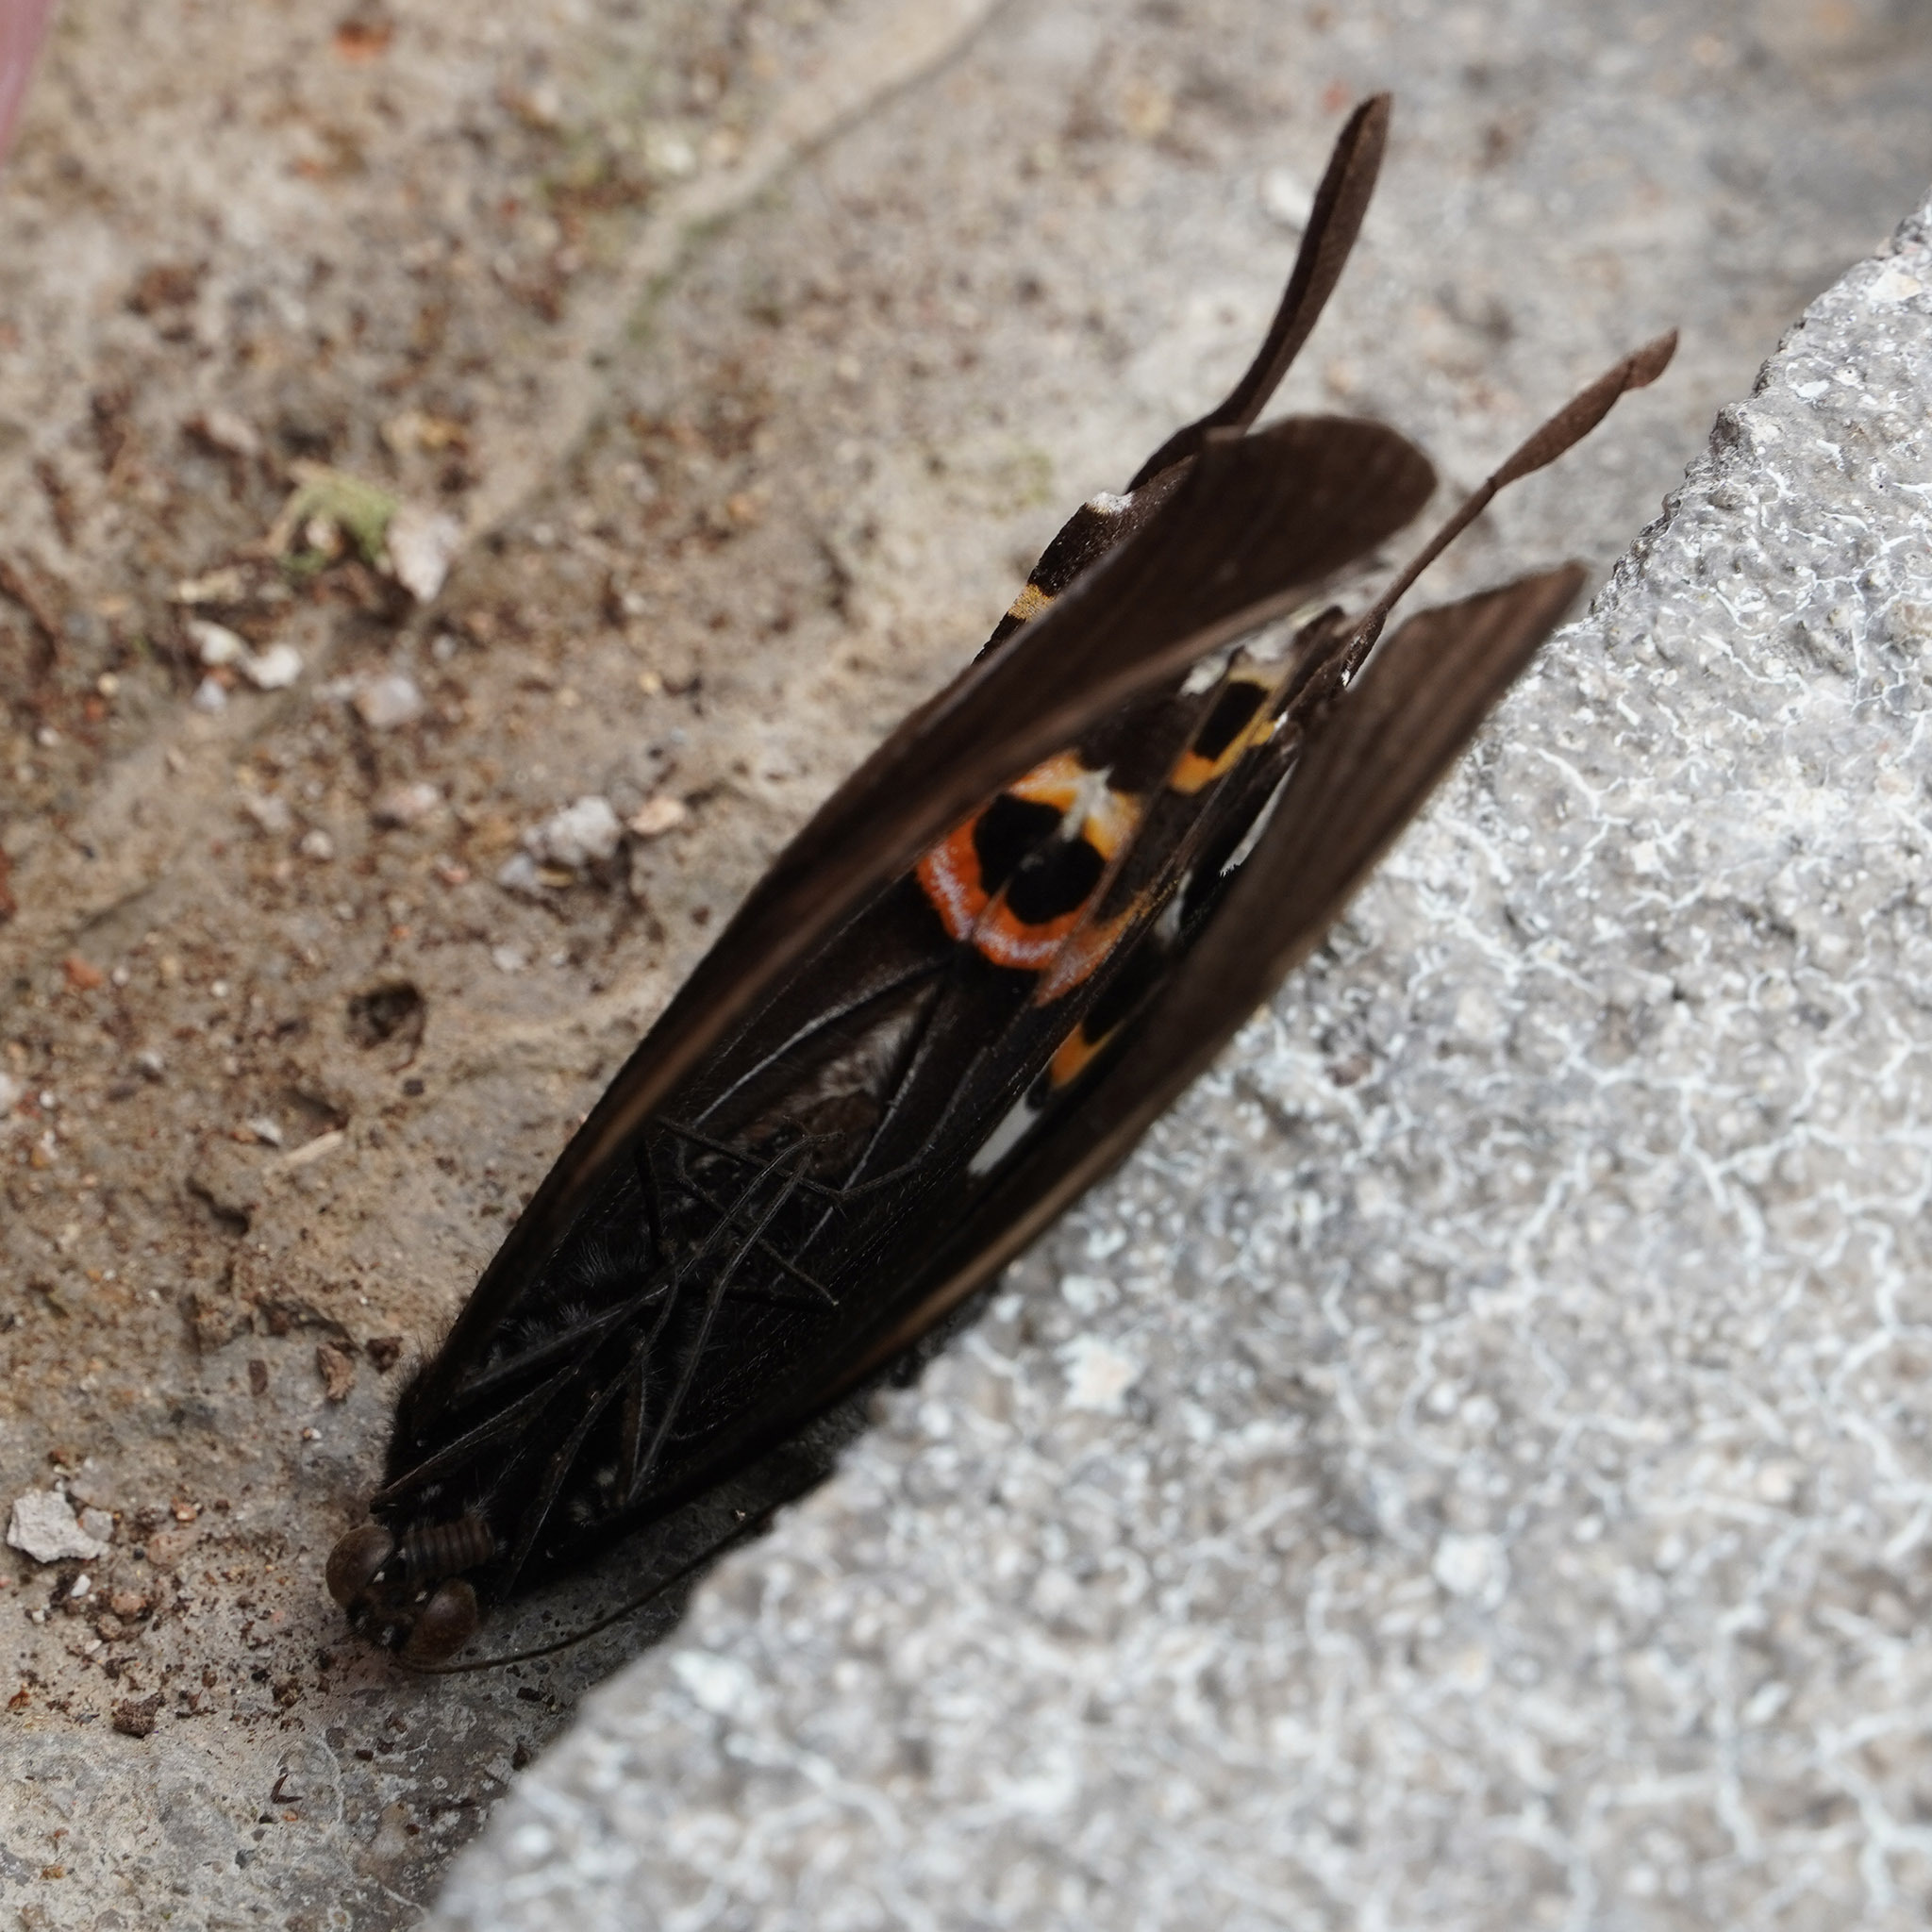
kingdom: Animalia
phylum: Arthropoda
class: Insecta
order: Lepidoptera
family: Papilionidae
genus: Papilio
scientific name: Papilio helenus
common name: Red helen
